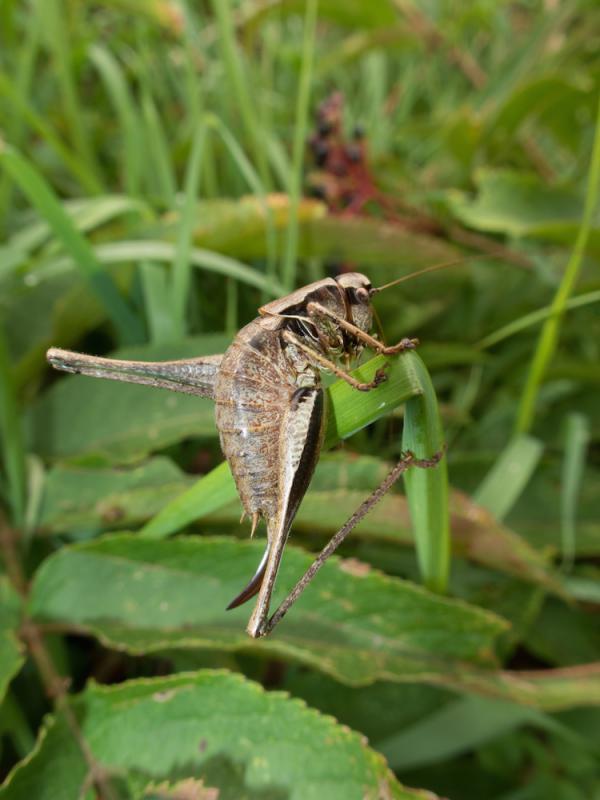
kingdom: Animalia
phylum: Arthropoda
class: Insecta
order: Orthoptera
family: Tettigoniidae
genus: Pholidoptera
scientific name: Pholidoptera griseoaptera
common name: Dark bush-cricket
